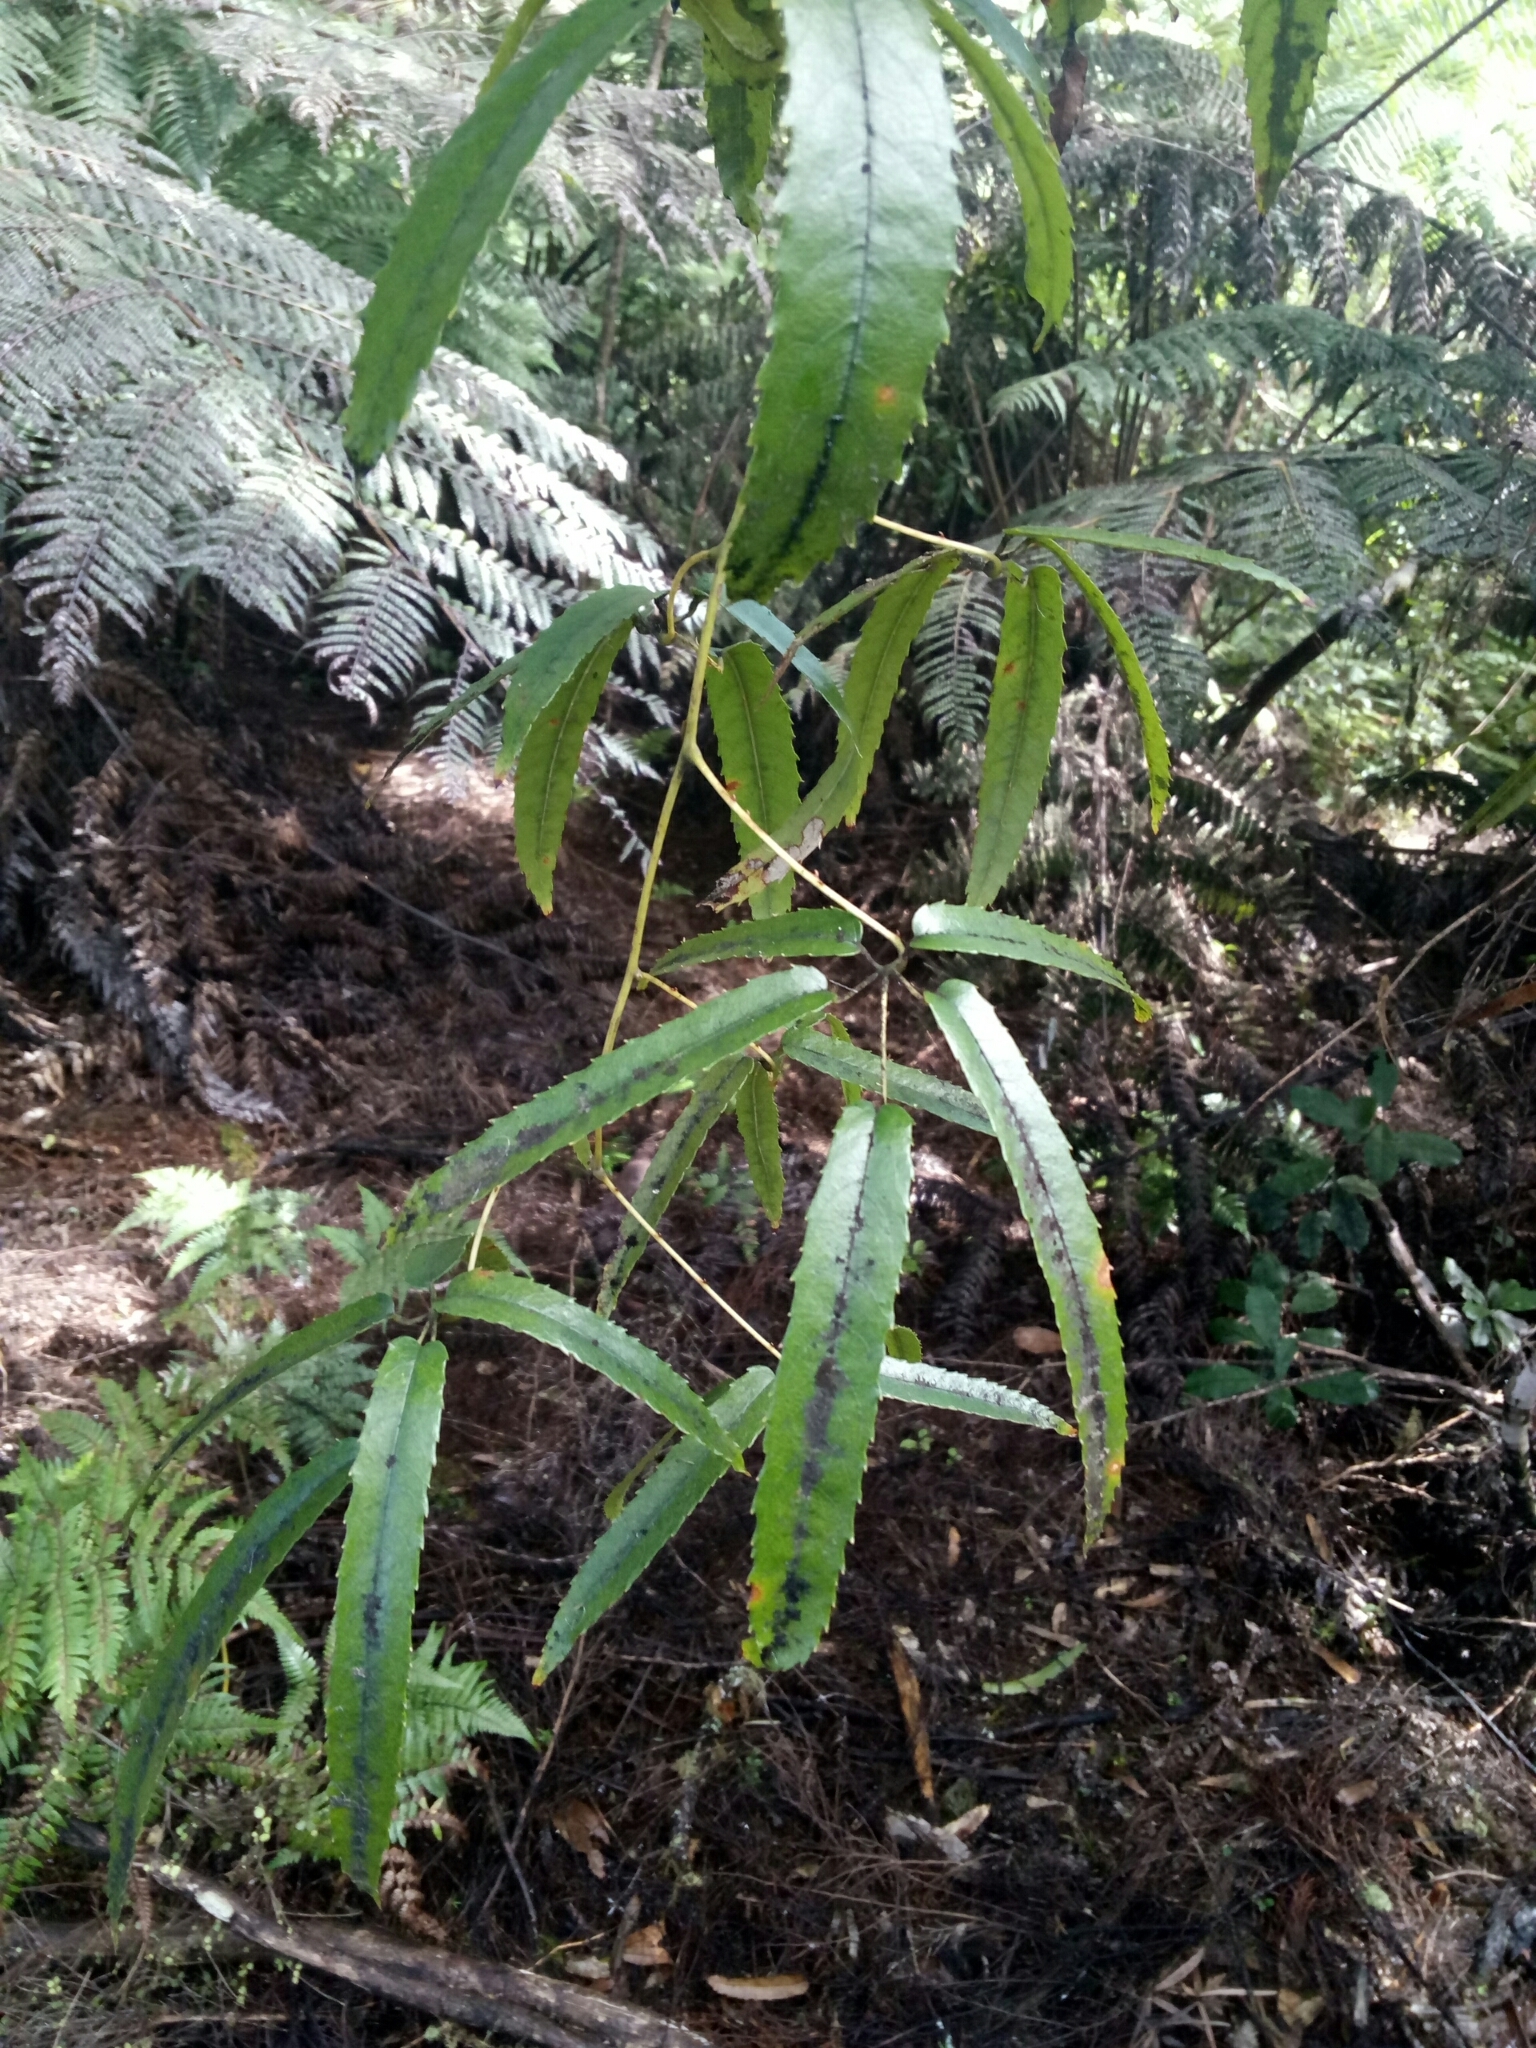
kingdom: Plantae
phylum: Tracheophyta
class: Magnoliopsida
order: Rosales
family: Rosaceae
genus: Rubus
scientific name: Rubus cissoides
